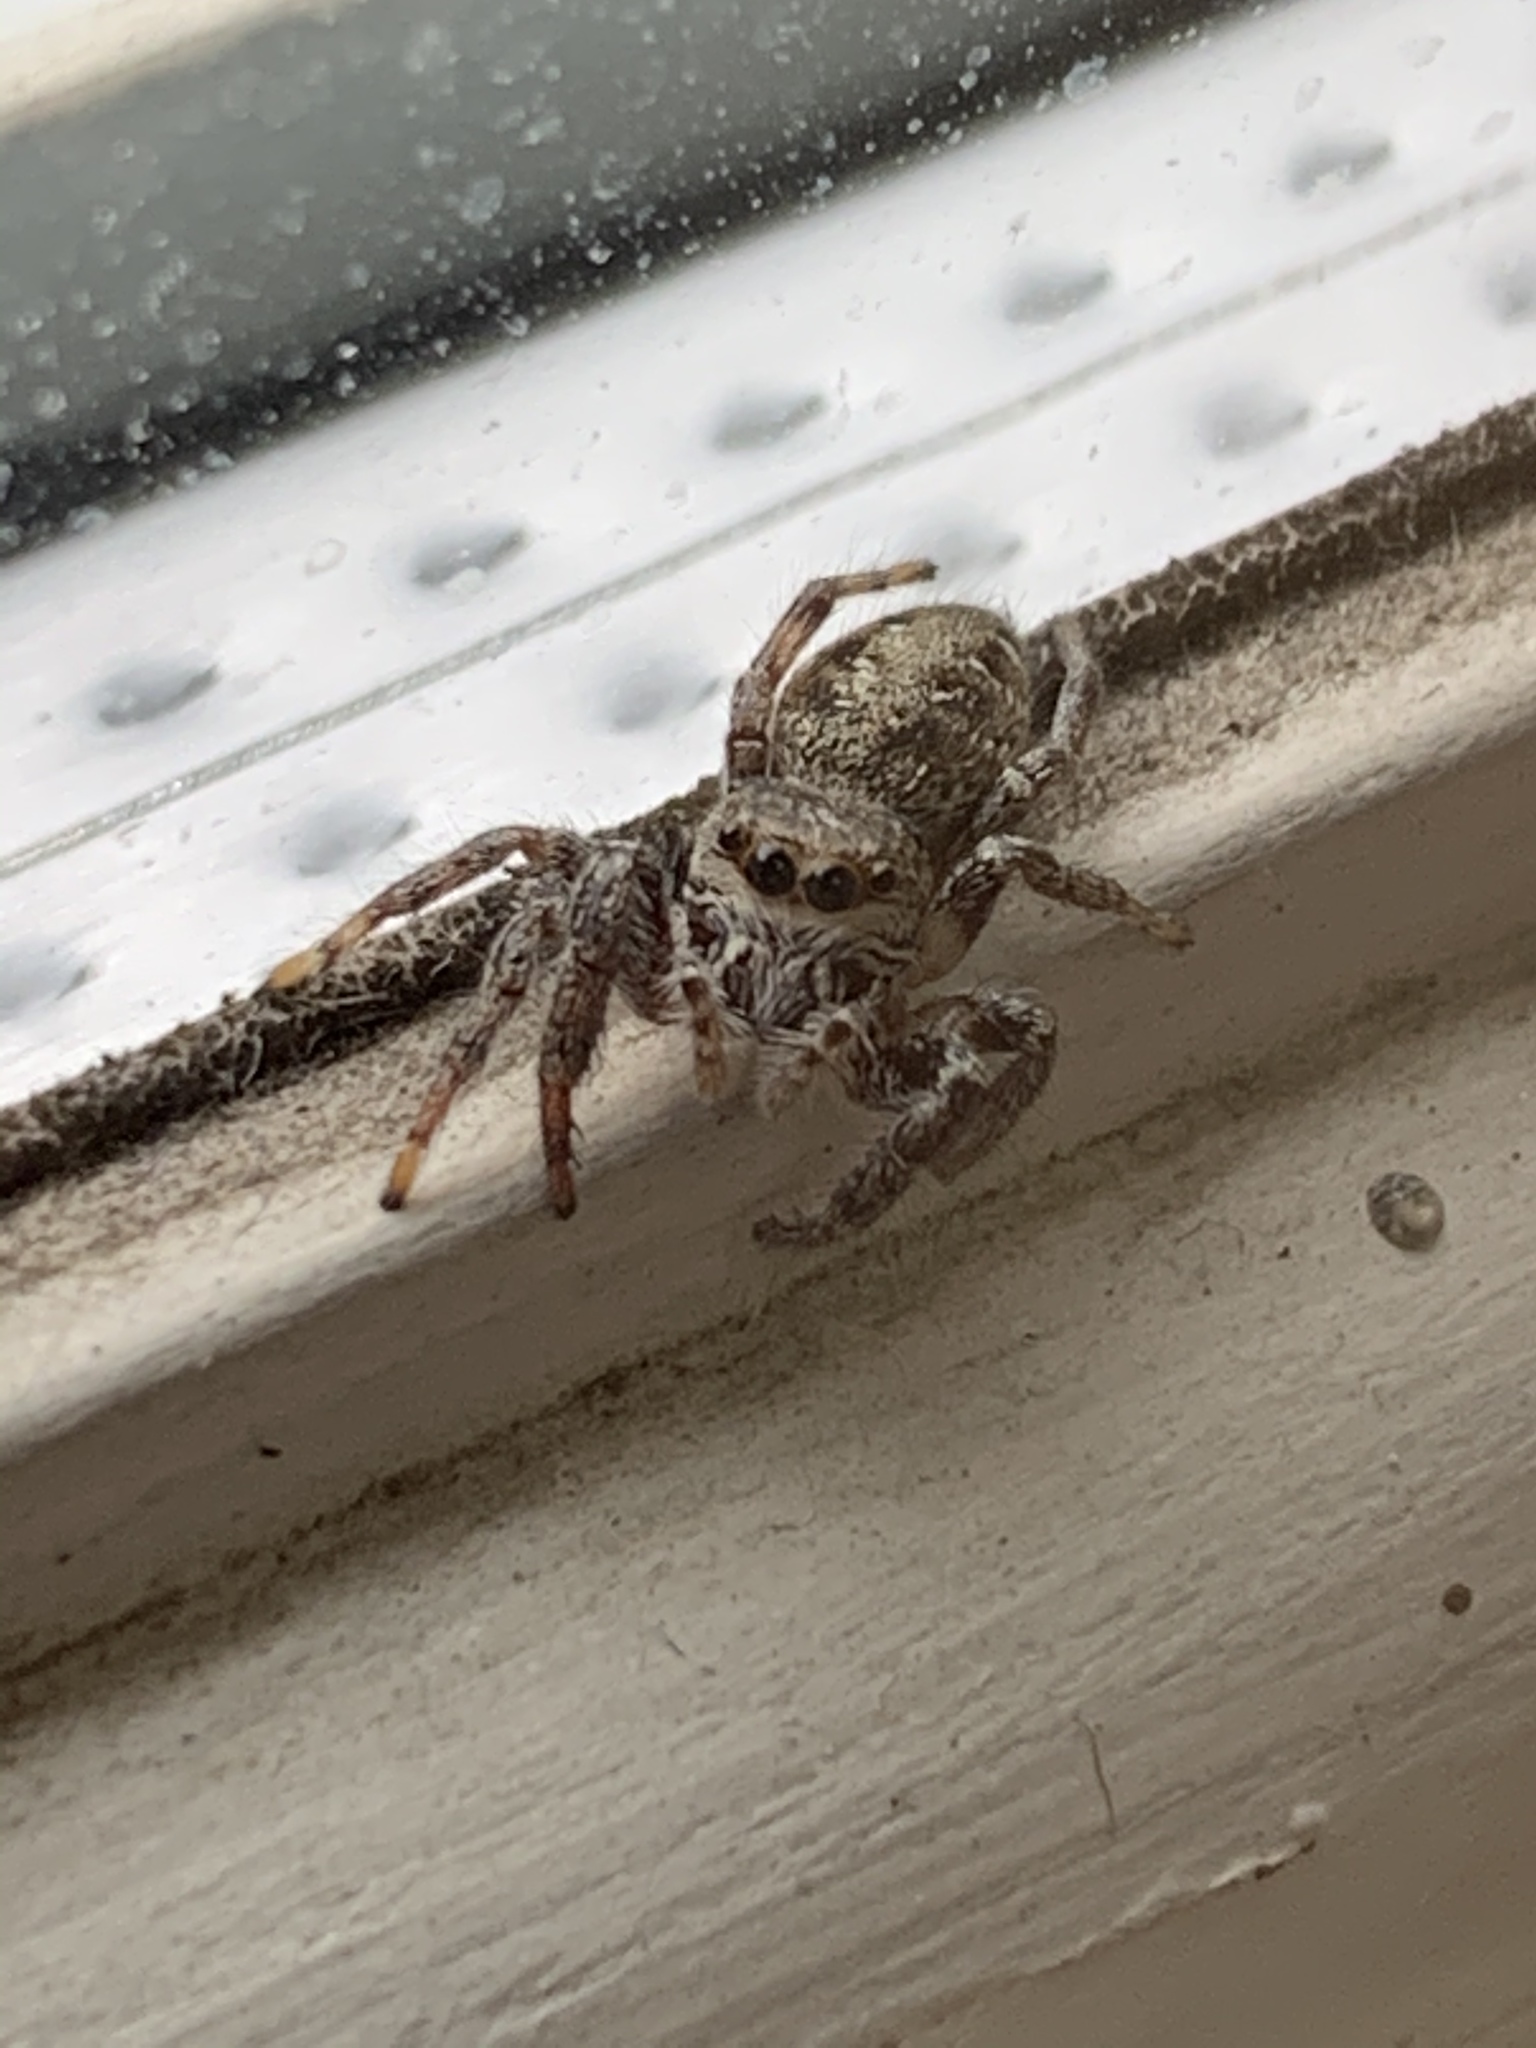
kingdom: Animalia
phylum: Arthropoda
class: Arachnida
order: Araneae
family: Salticidae
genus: Eris
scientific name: Eris militaris
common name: Bronze jumper
